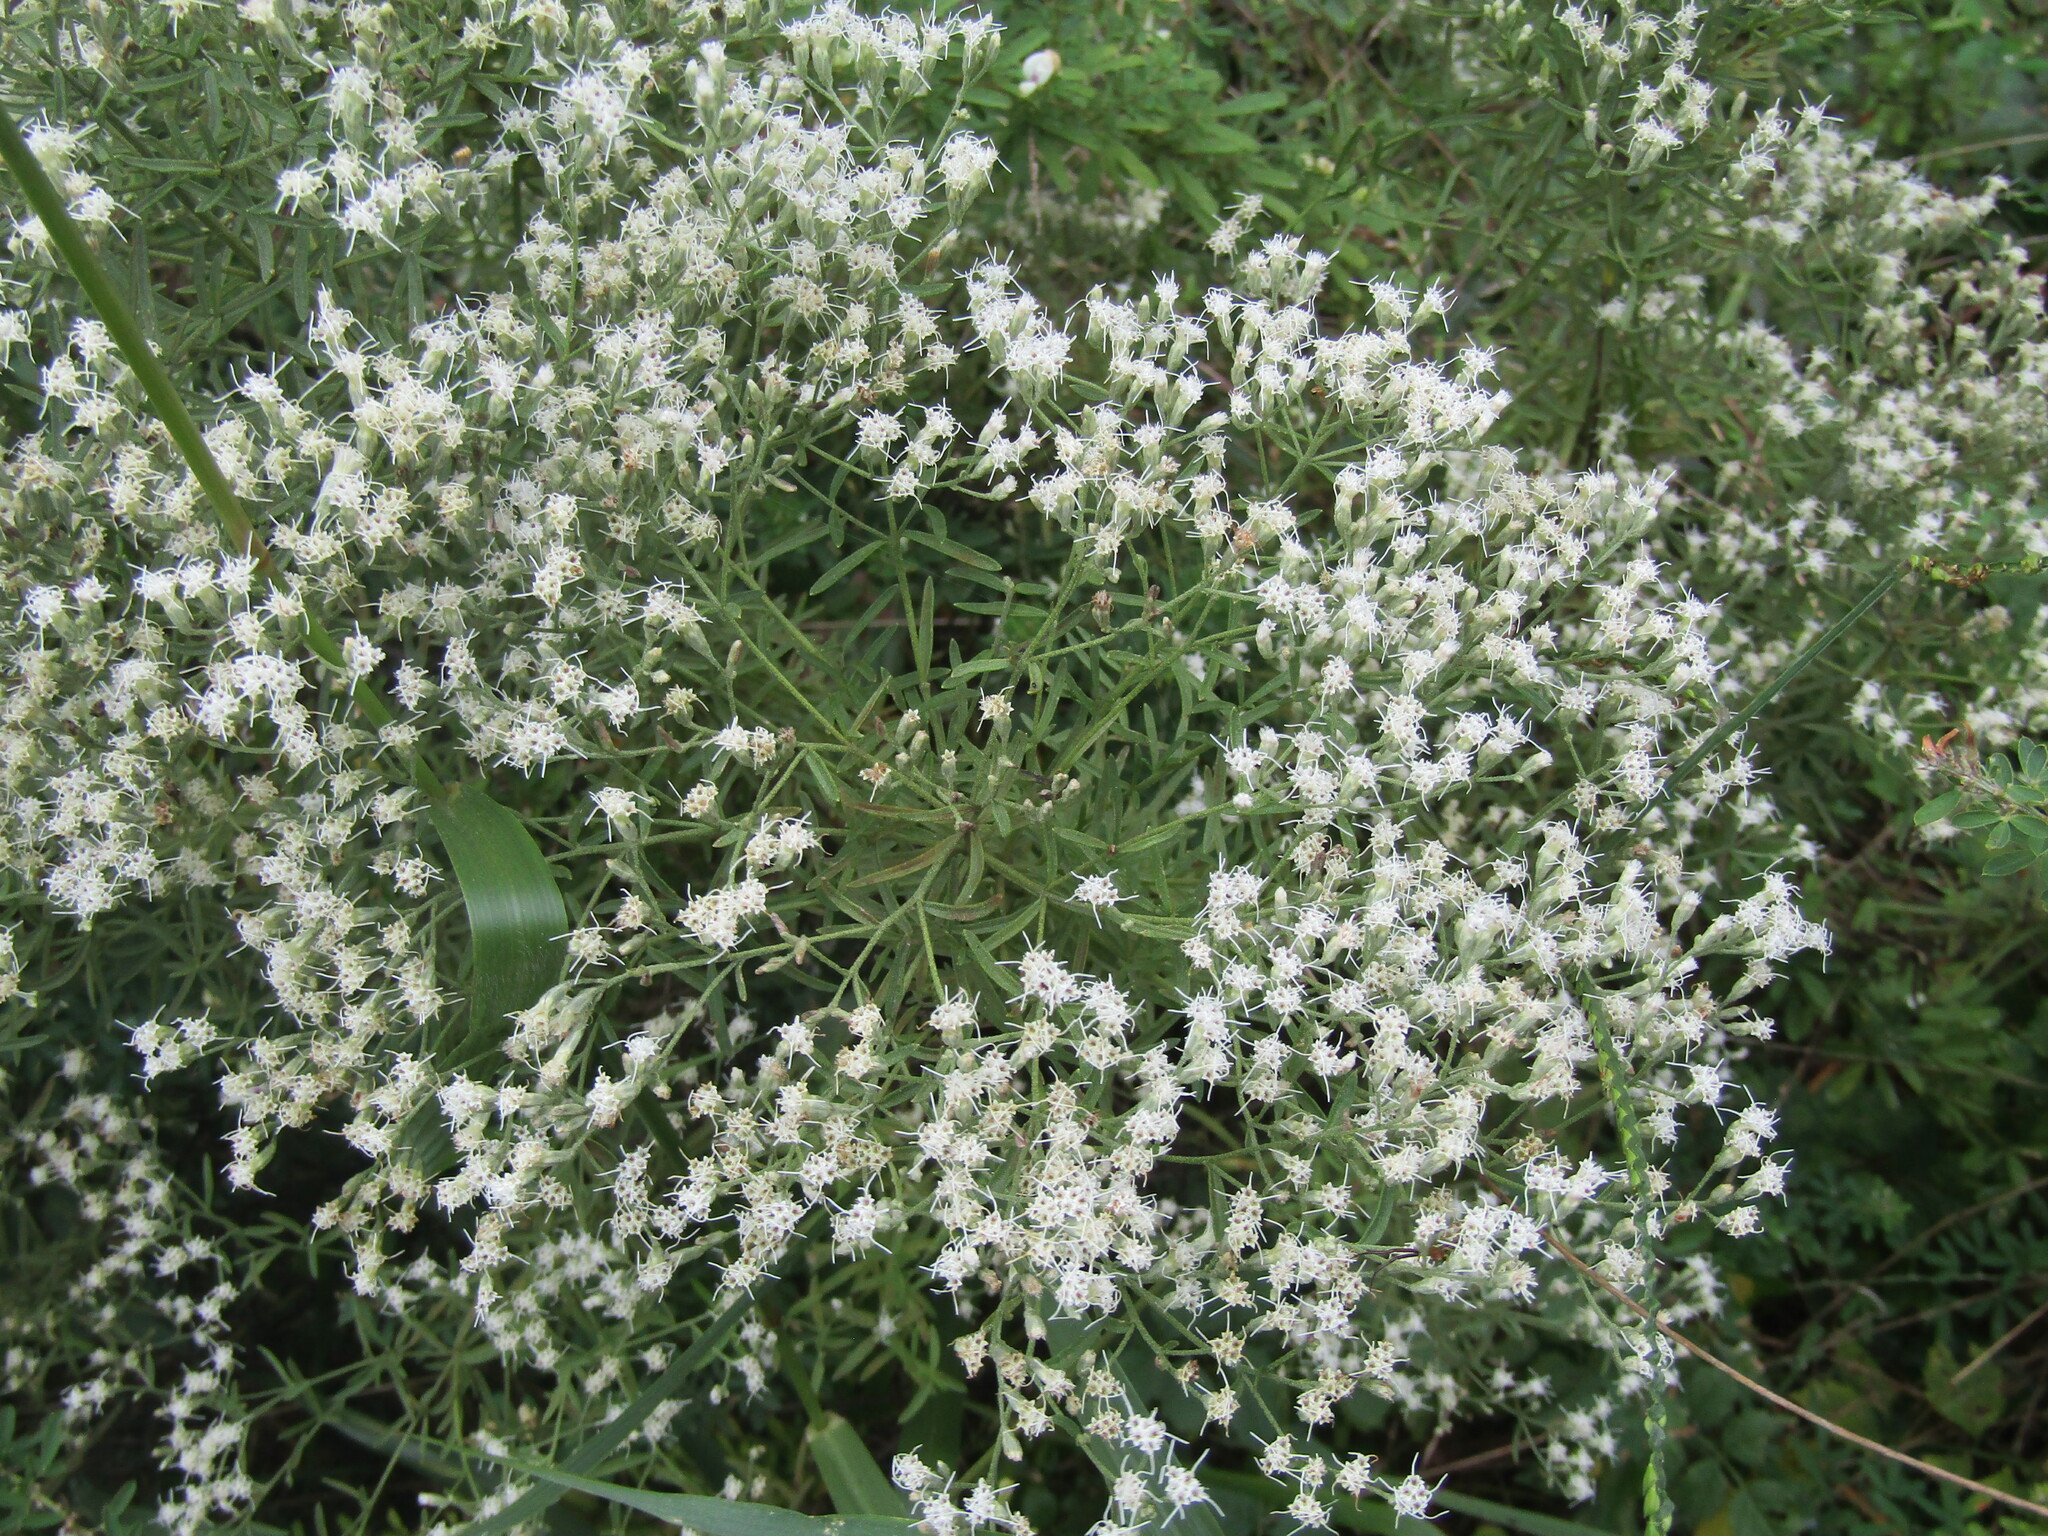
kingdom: Plantae
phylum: Tracheophyta
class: Magnoliopsida
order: Asterales
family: Asteraceae
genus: Eupatorium
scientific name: Eupatorium hyssopifolium
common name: Hyssop-leaf thoroughwort
